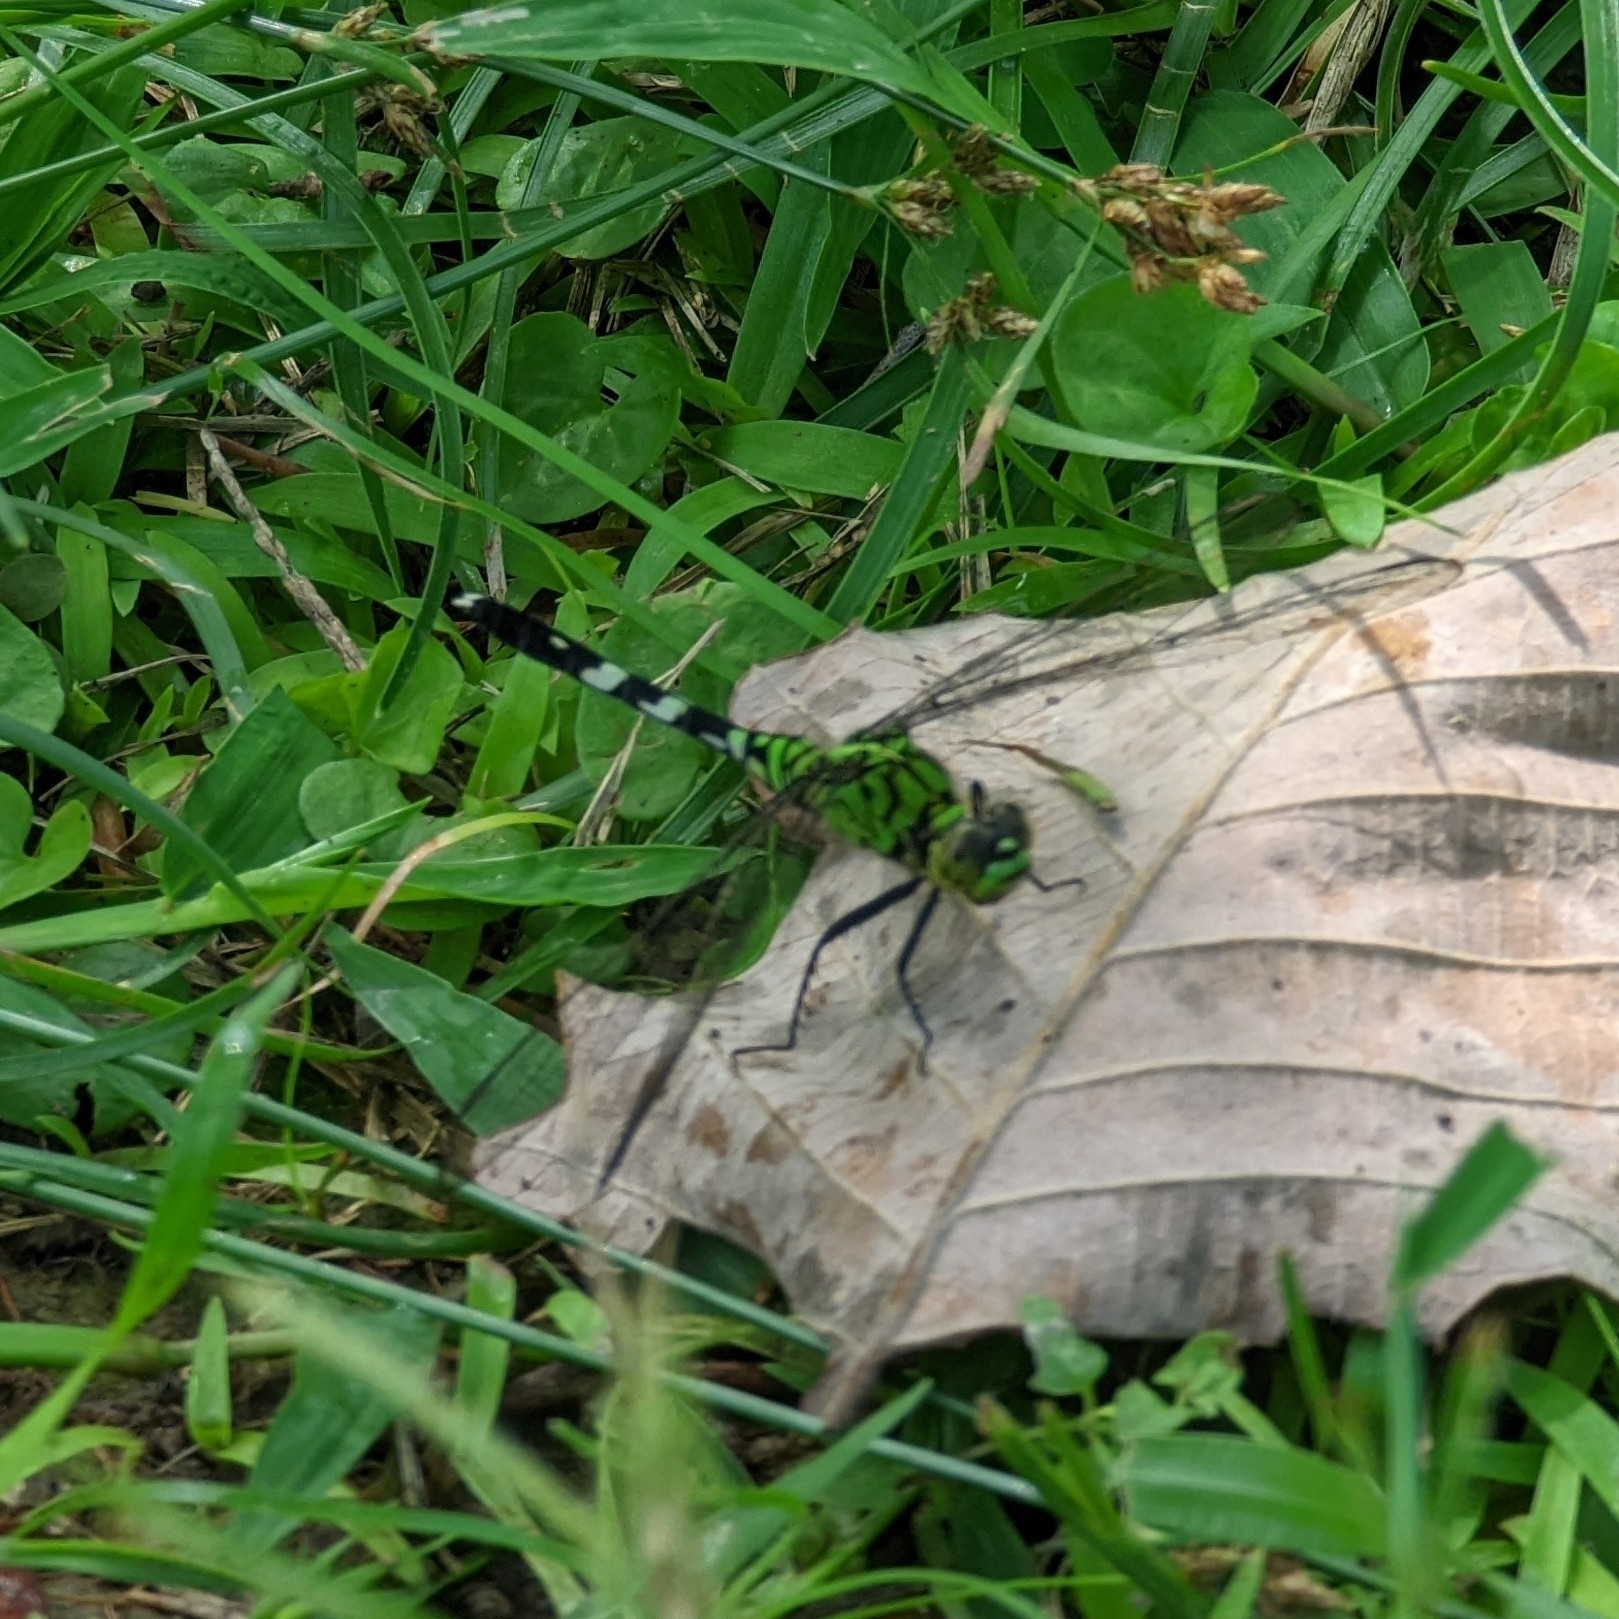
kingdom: Animalia
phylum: Arthropoda
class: Insecta
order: Odonata
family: Libellulidae
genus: Erythemis
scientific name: Erythemis simplicicollis
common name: Eastern pondhawk
